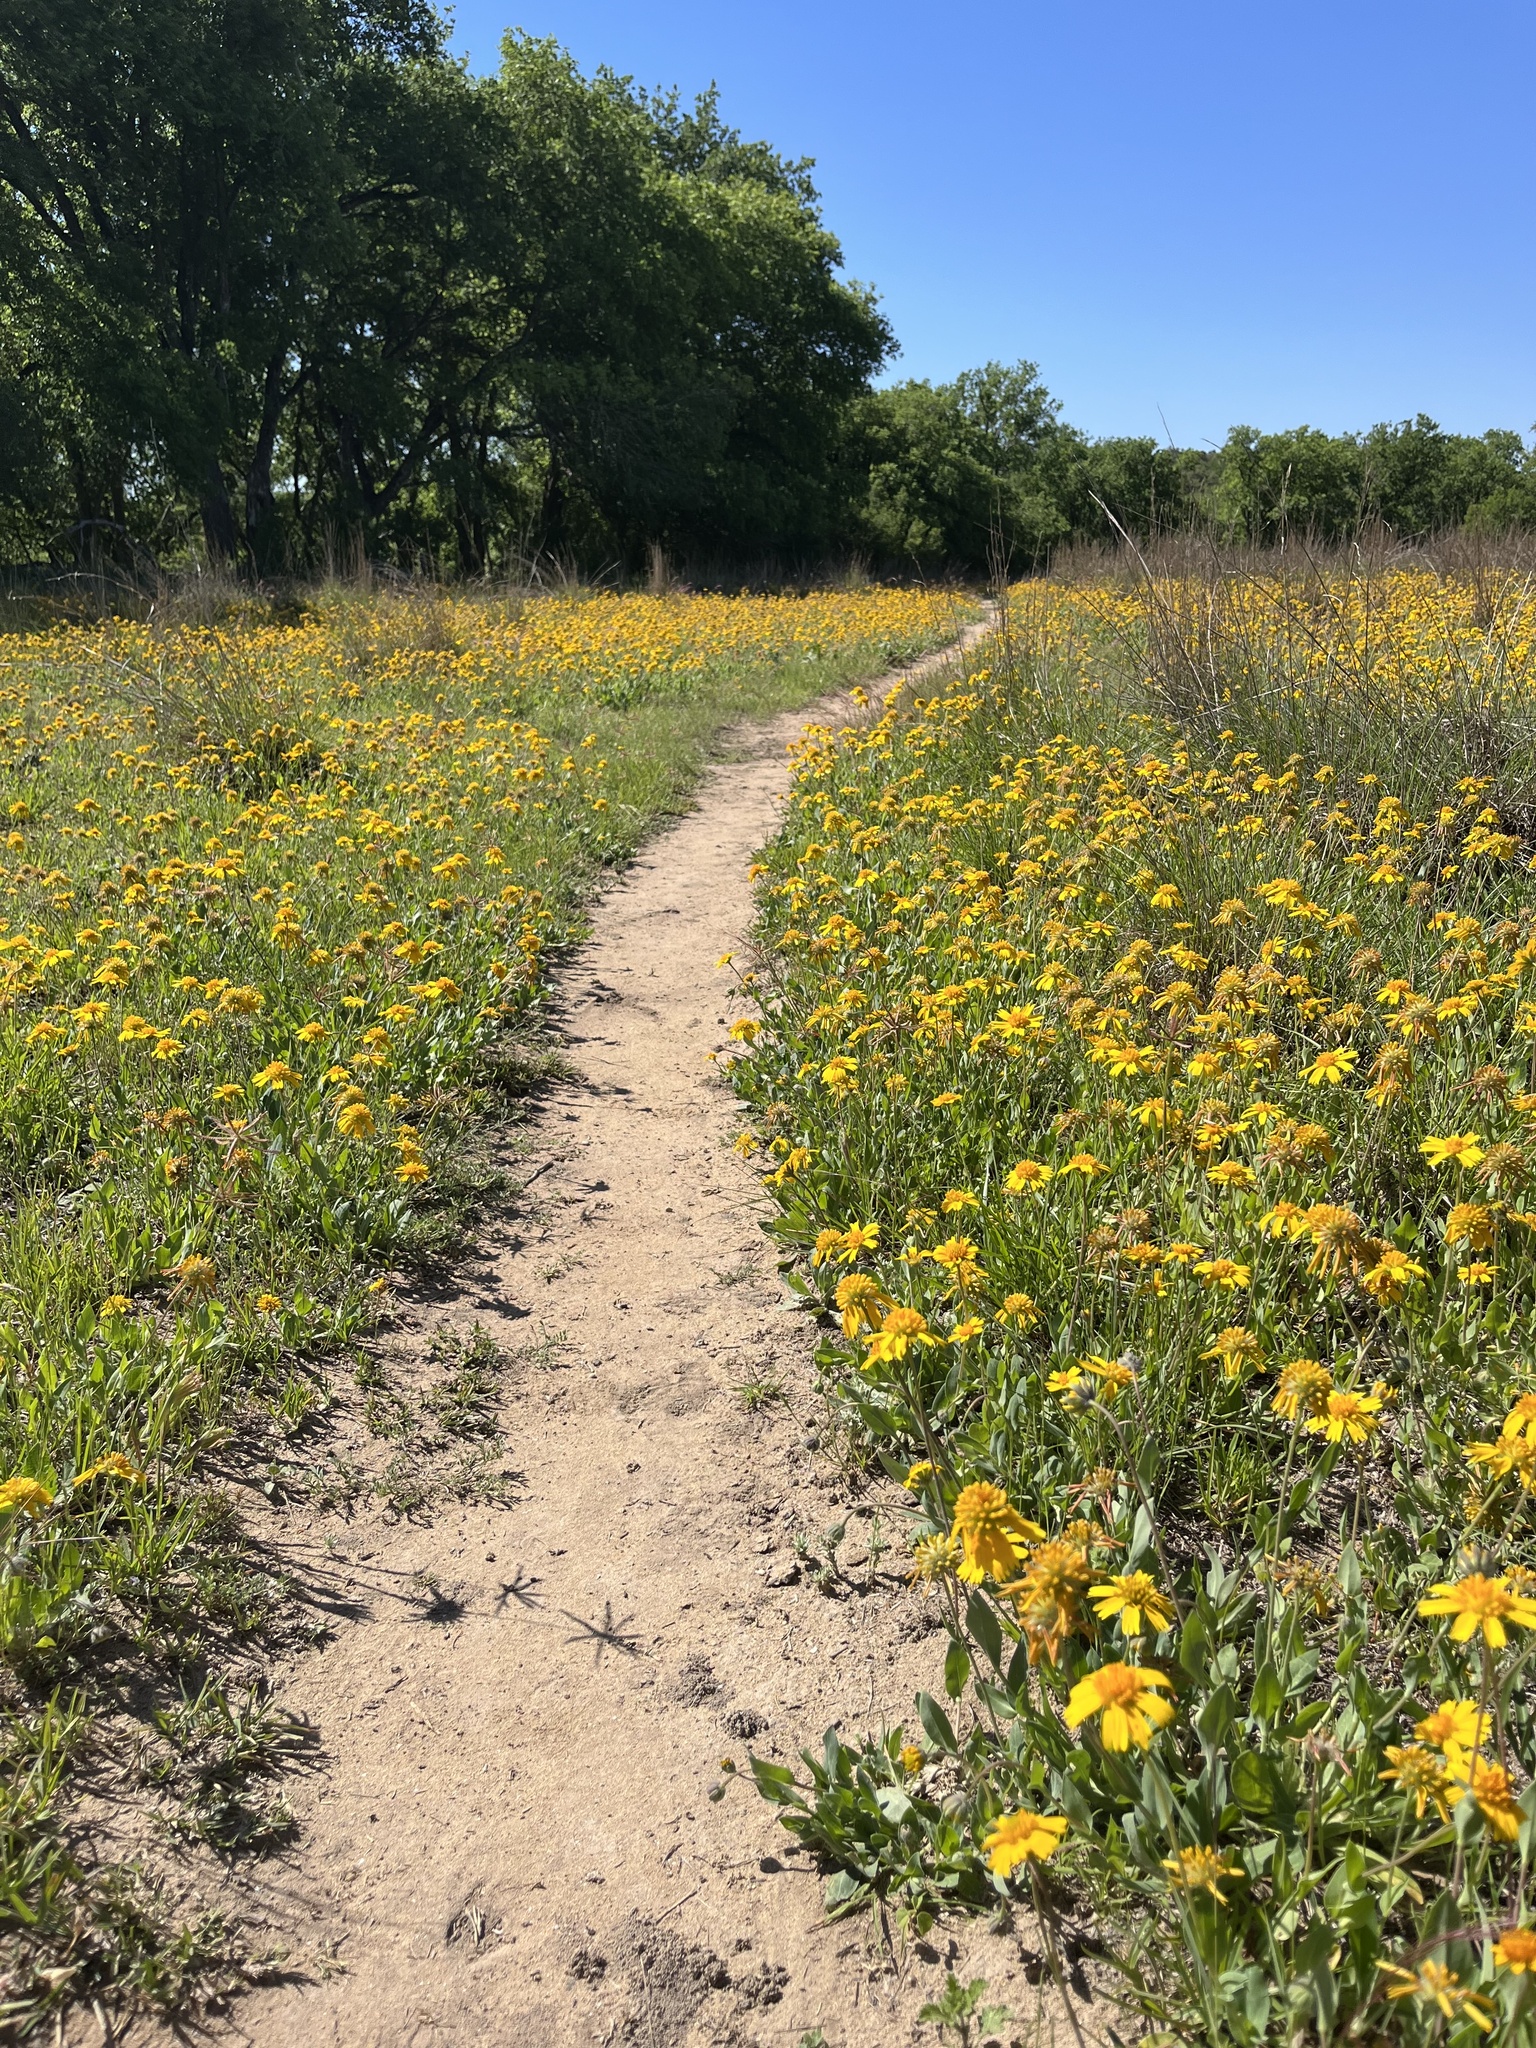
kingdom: Plantae
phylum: Tracheophyta
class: Magnoliopsida
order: Asterales
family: Asteraceae
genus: Amblyolepis
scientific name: Amblyolepis setigera
